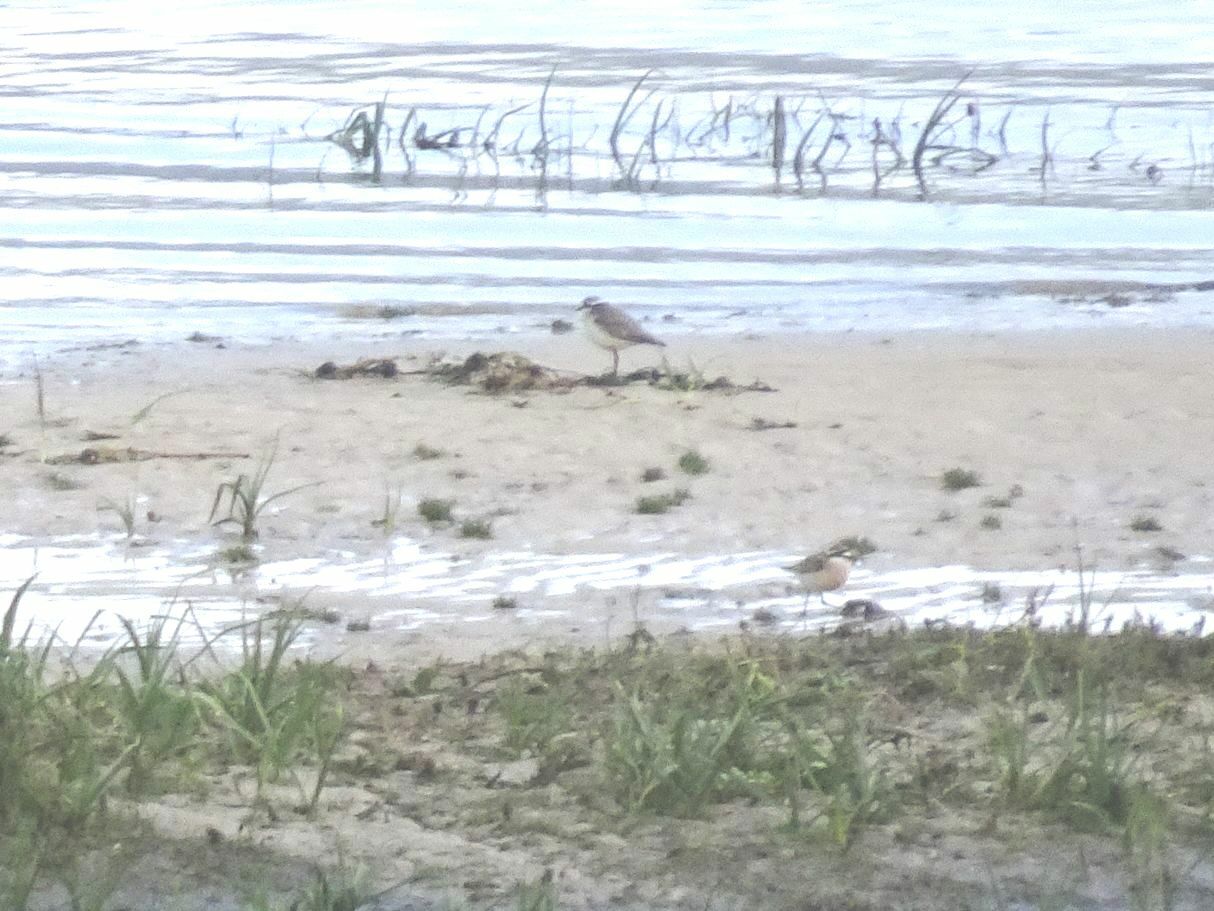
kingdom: Animalia
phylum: Chordata
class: Aves
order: Charadriiformes
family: Charadriidae
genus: Anarhynchus
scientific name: Anarhynchus
